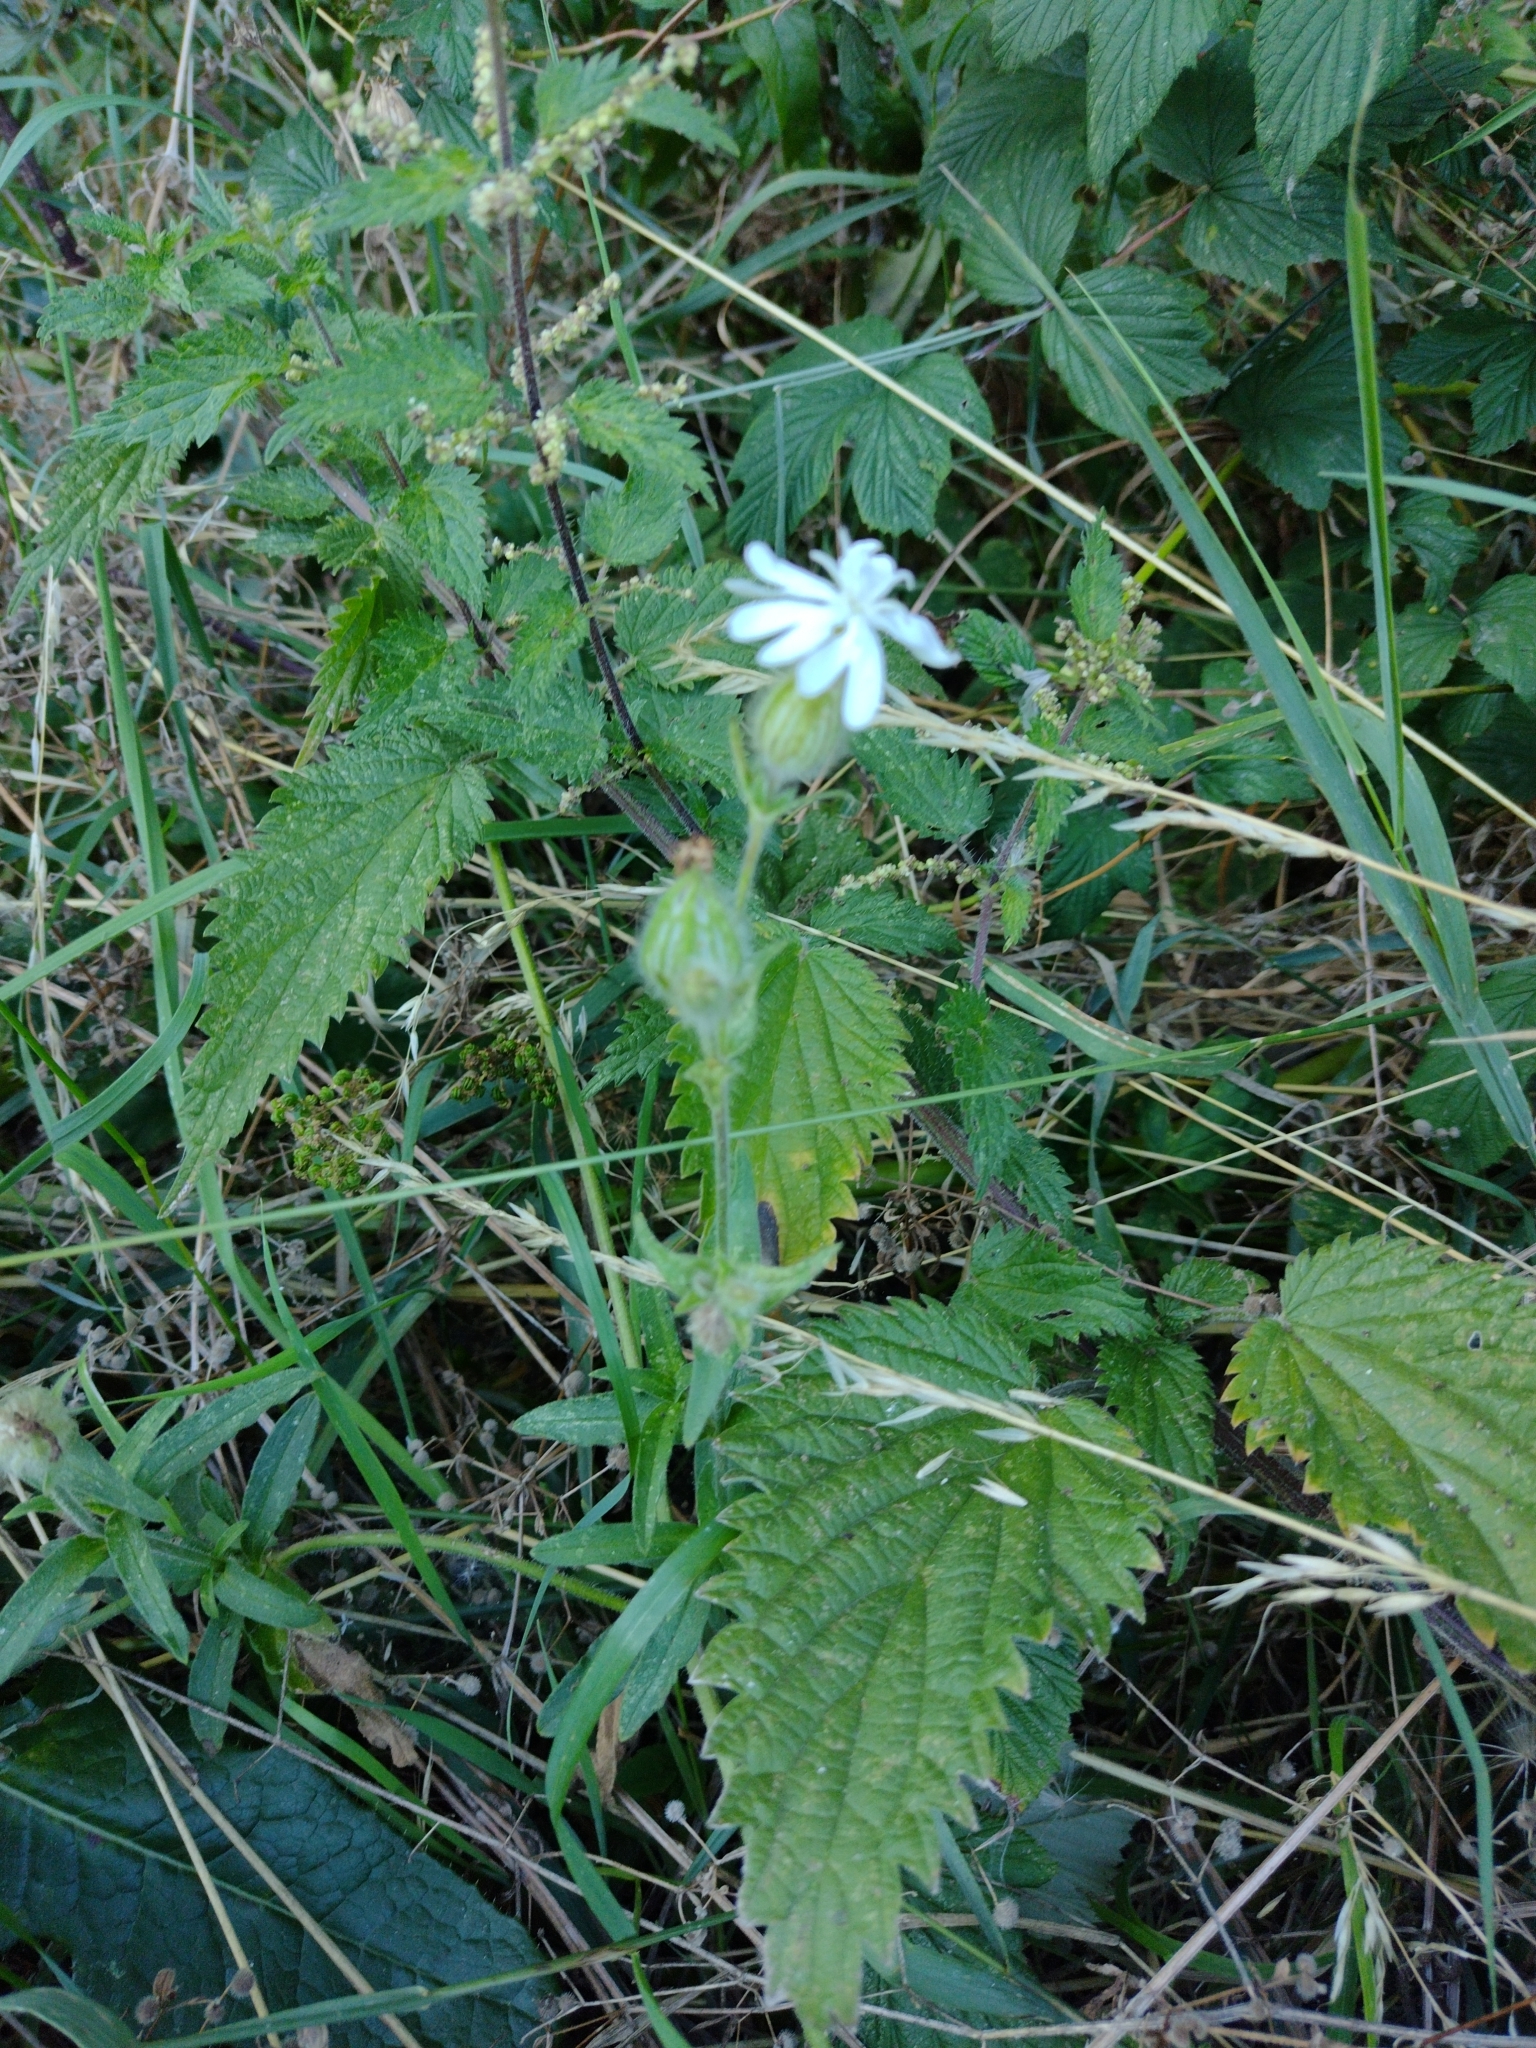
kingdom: Plantae
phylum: Tracheophyta
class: Magnoliopsida
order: Caryophyllales
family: Caryophyllaceae
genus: Silene
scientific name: Silene latifolia
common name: White campion
